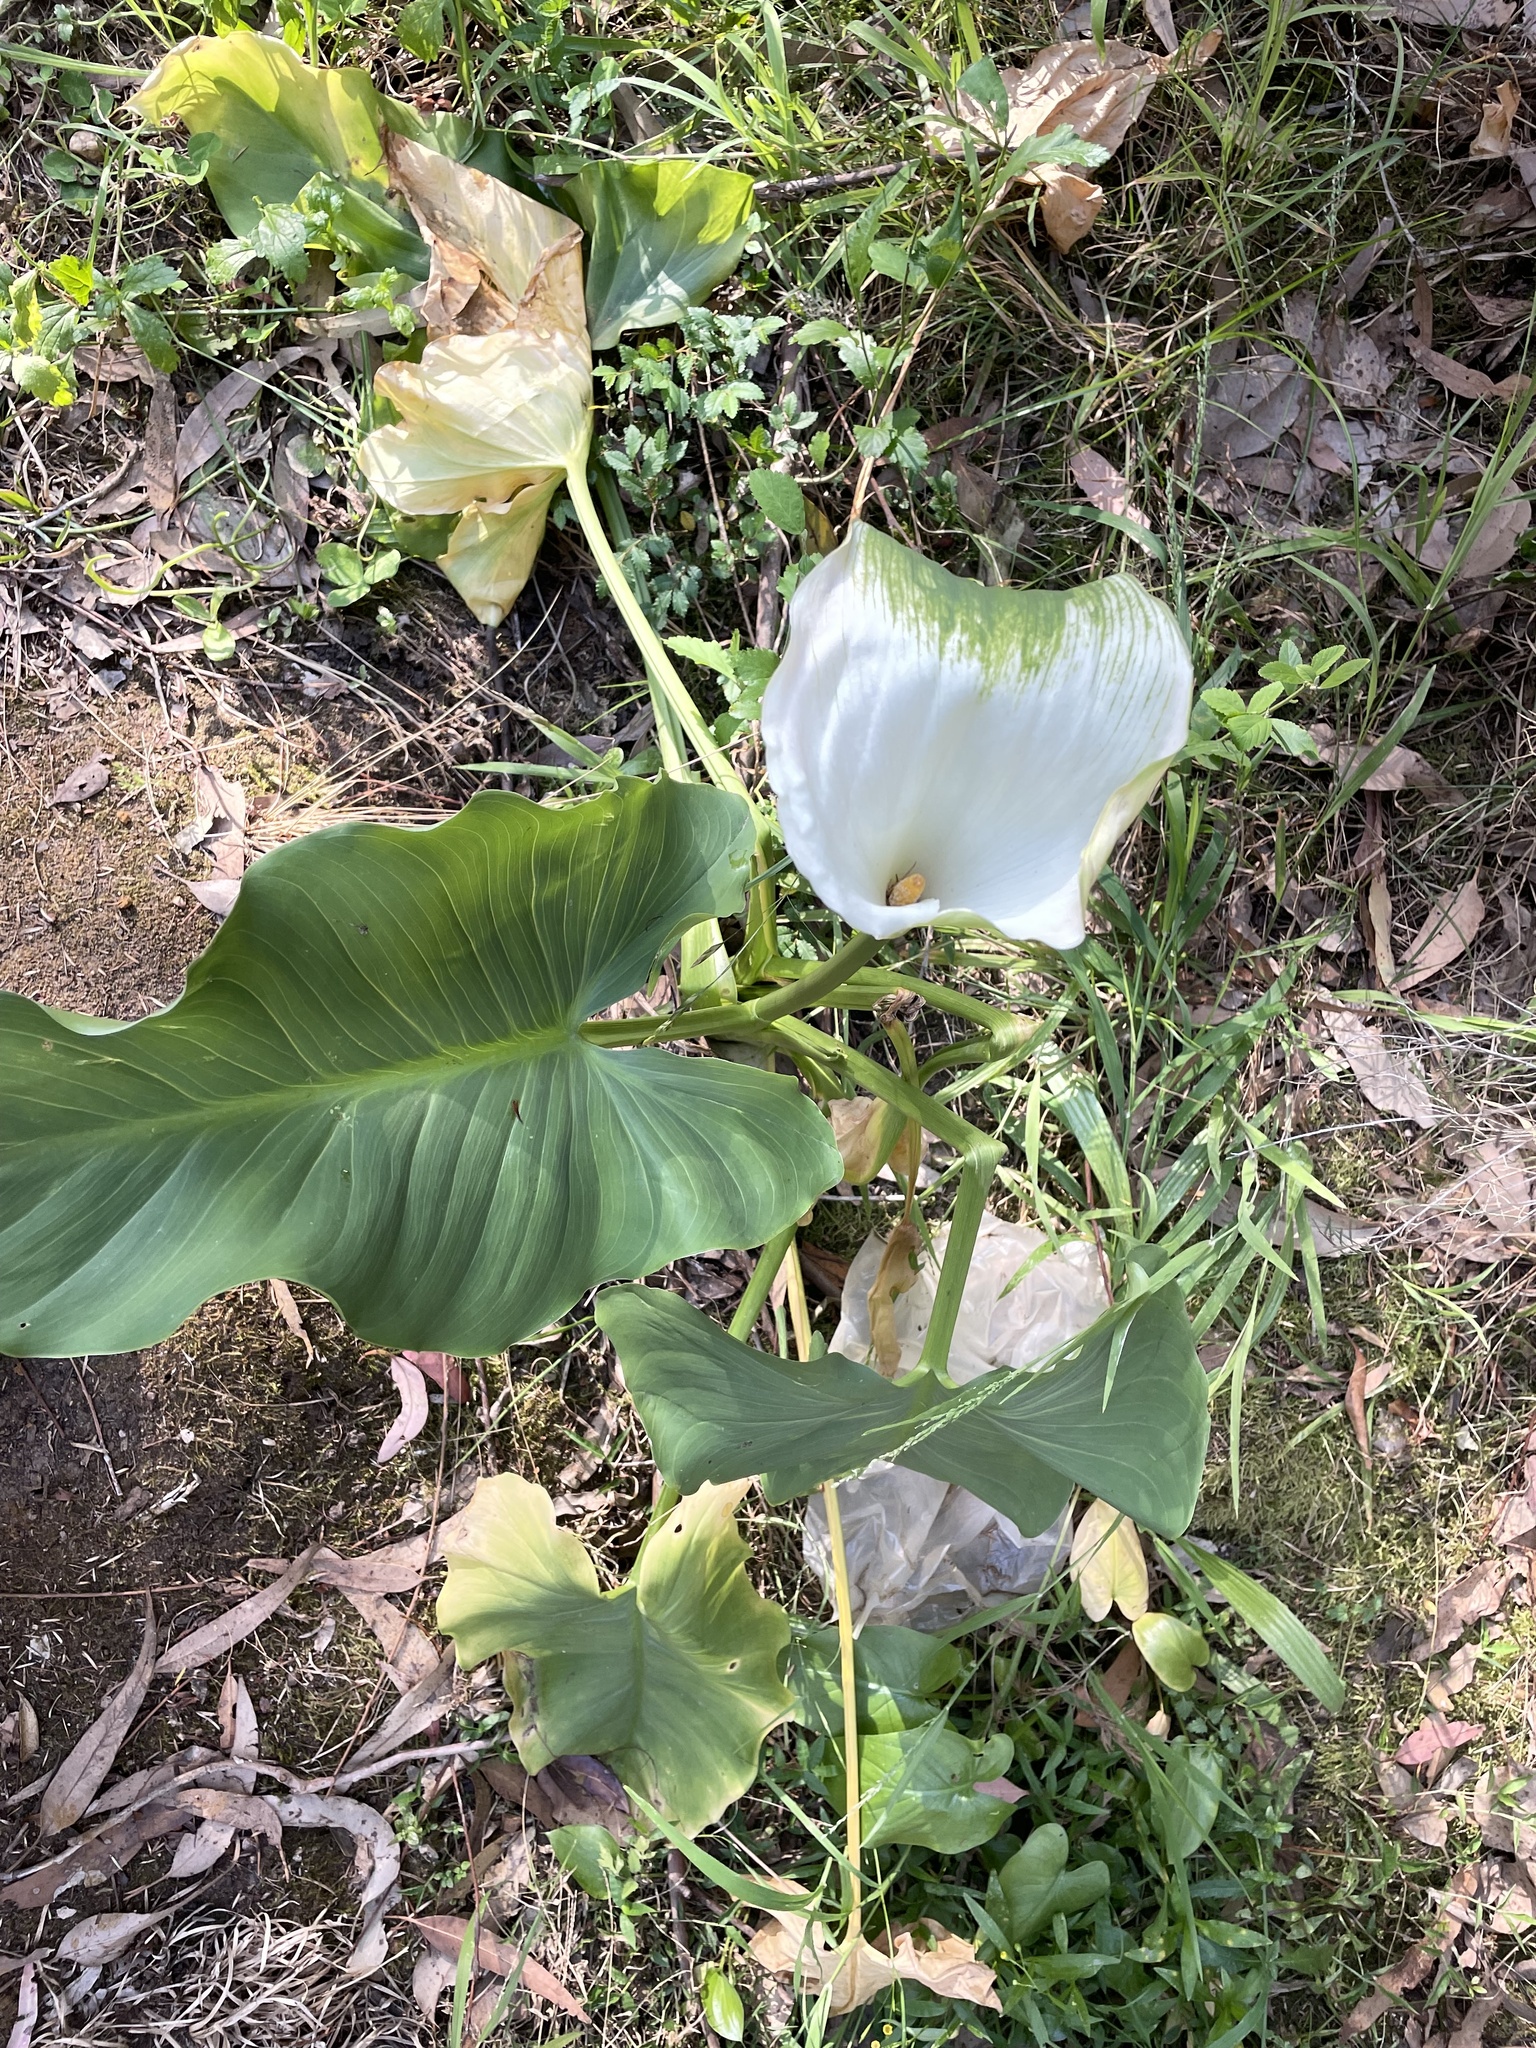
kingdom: Plantae
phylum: Tracheophyta
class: Liliopsida
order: Alismatales
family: Araceae
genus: Zantedeschia
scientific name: Zantedeschia aethiopica
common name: Altar-lily
